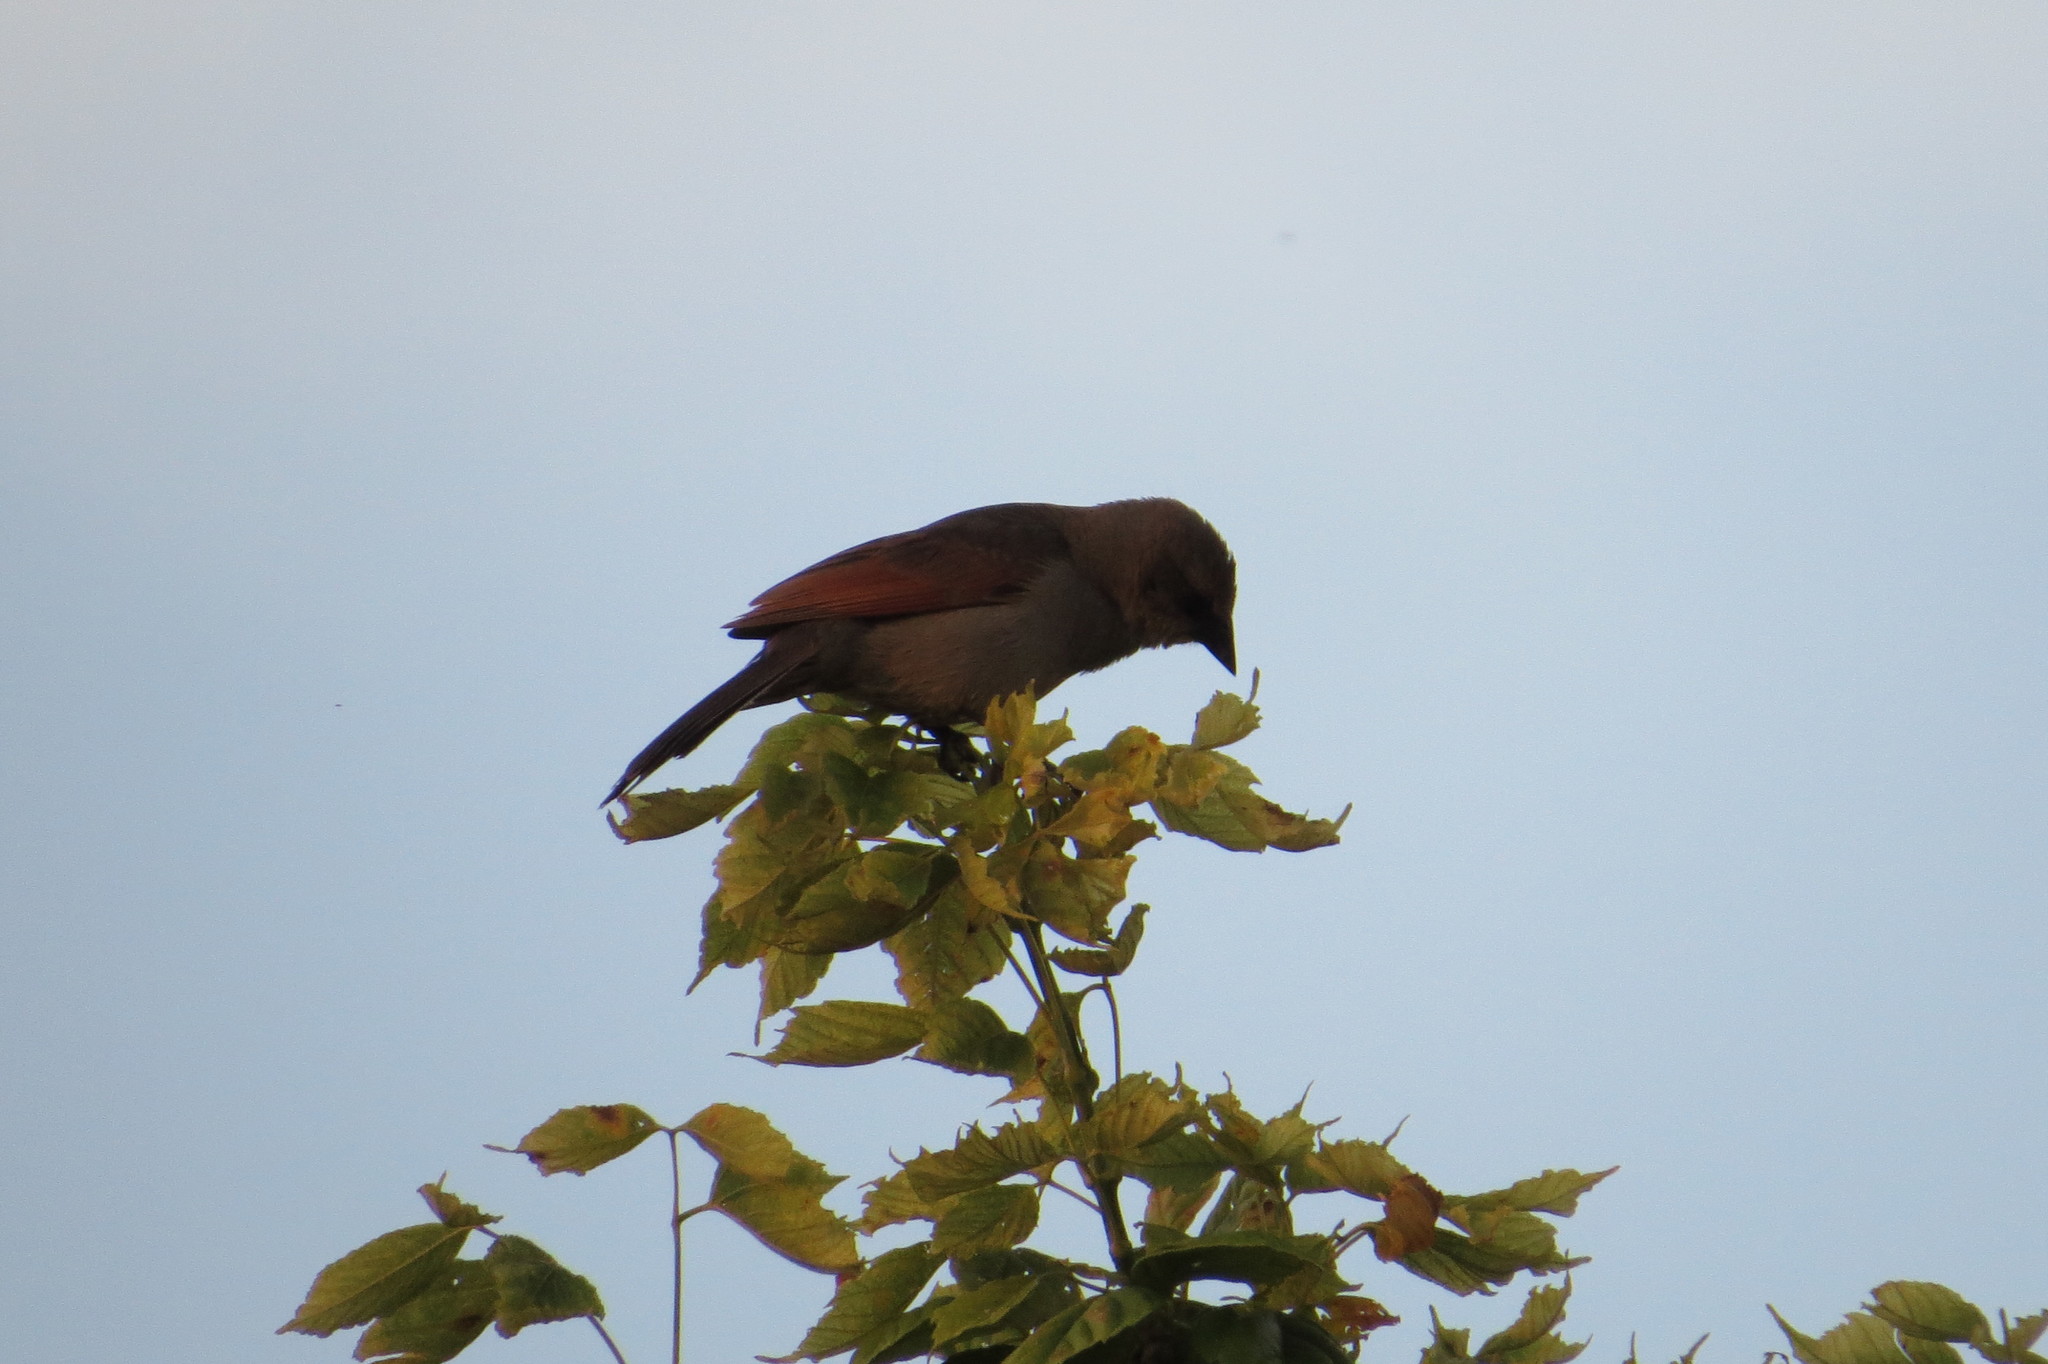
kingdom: Animalia
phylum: Chordata
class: Aves
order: Passeriformes
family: Icteridae
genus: Agelaioides
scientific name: Agelaioides badius
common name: Baywing
